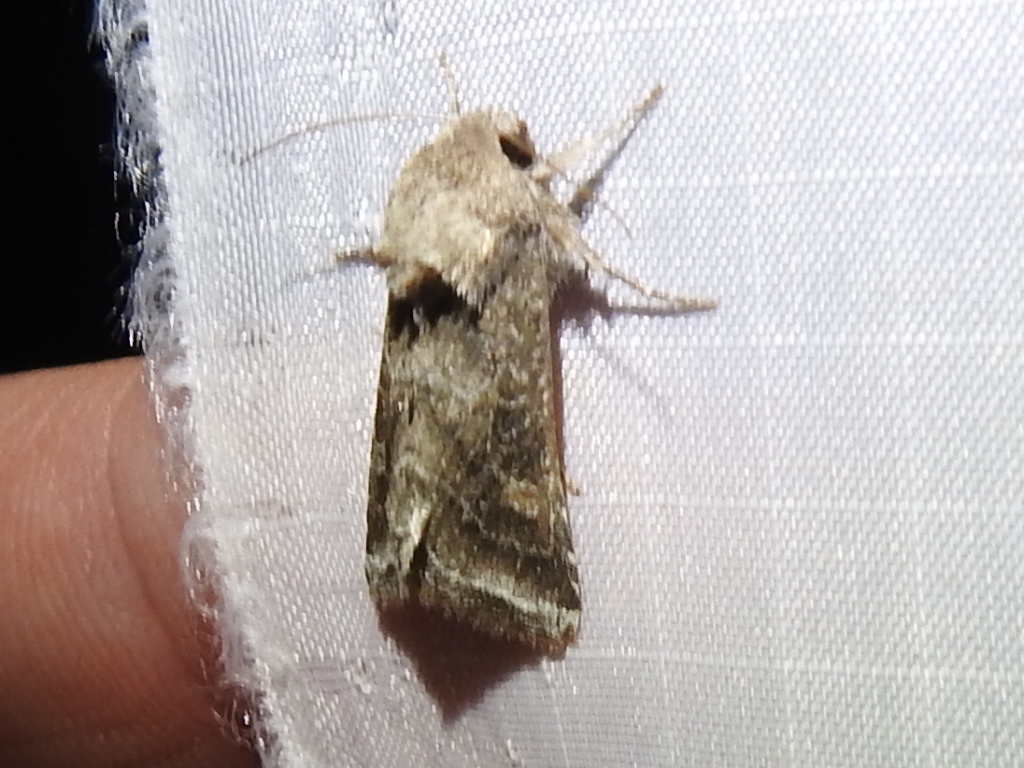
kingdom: Animalia
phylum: Arthropoda
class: Insecta
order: Lepidoptera
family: Noctuidae
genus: Lacinipolia
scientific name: Lacinipolia erecta
